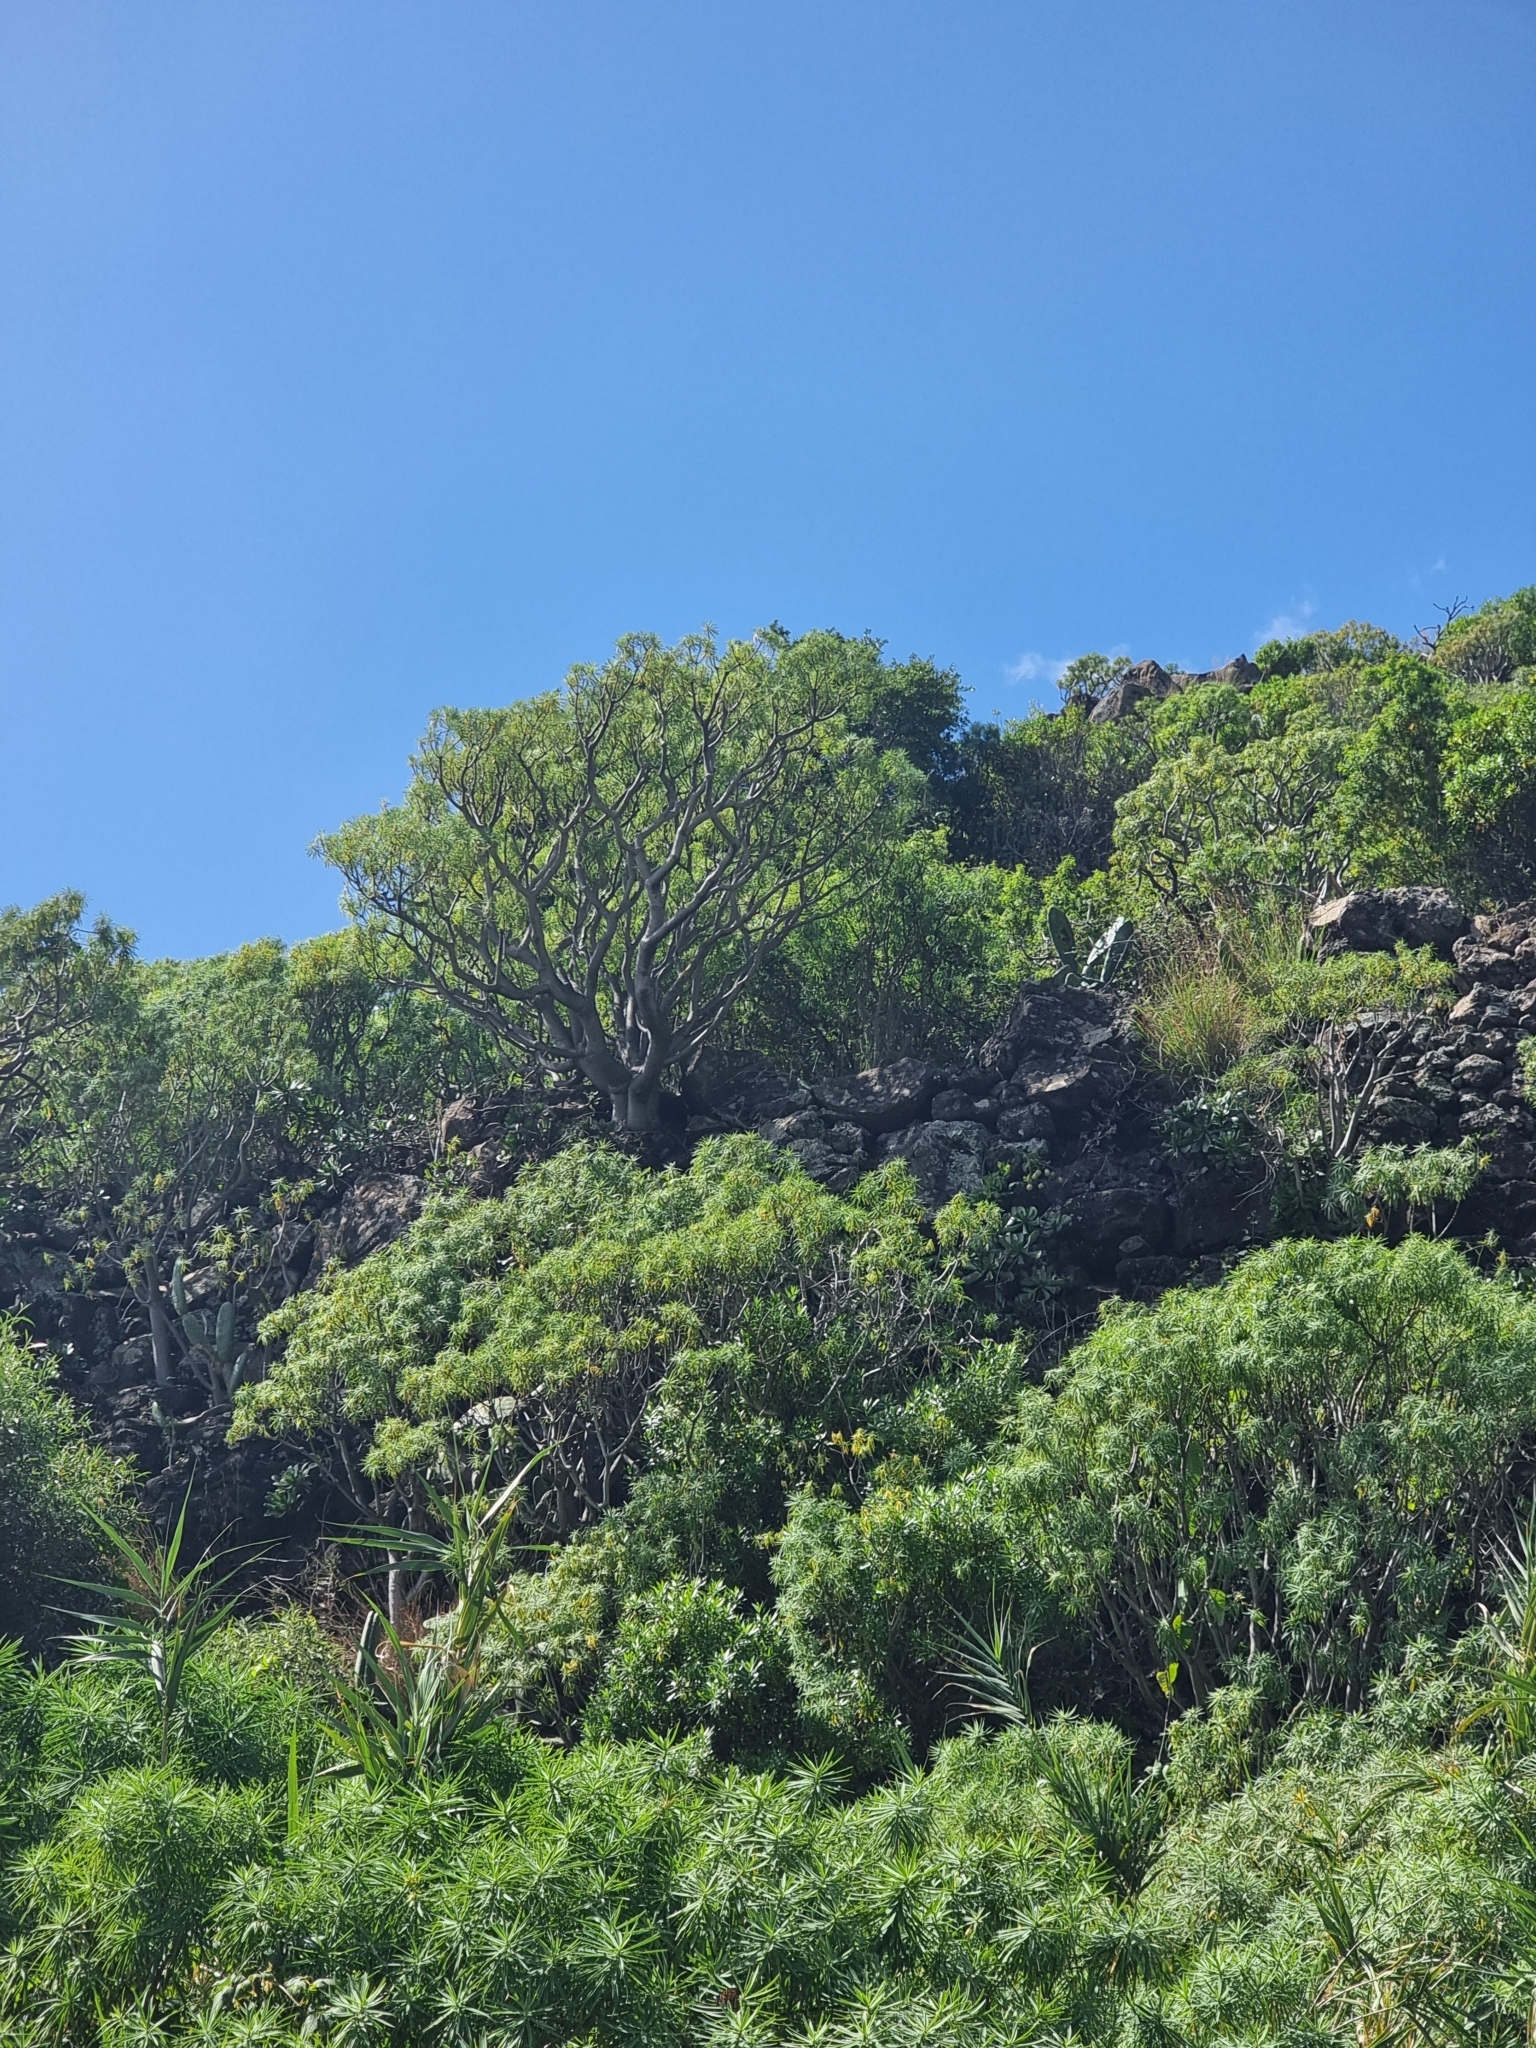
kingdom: Plantae
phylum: Tracheophyta
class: Magnoliopsida
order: Malpighiales
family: Euphorbiaceae
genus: Euphorbia
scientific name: Euphorbia piscatoria
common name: Fish-stunning spurge
